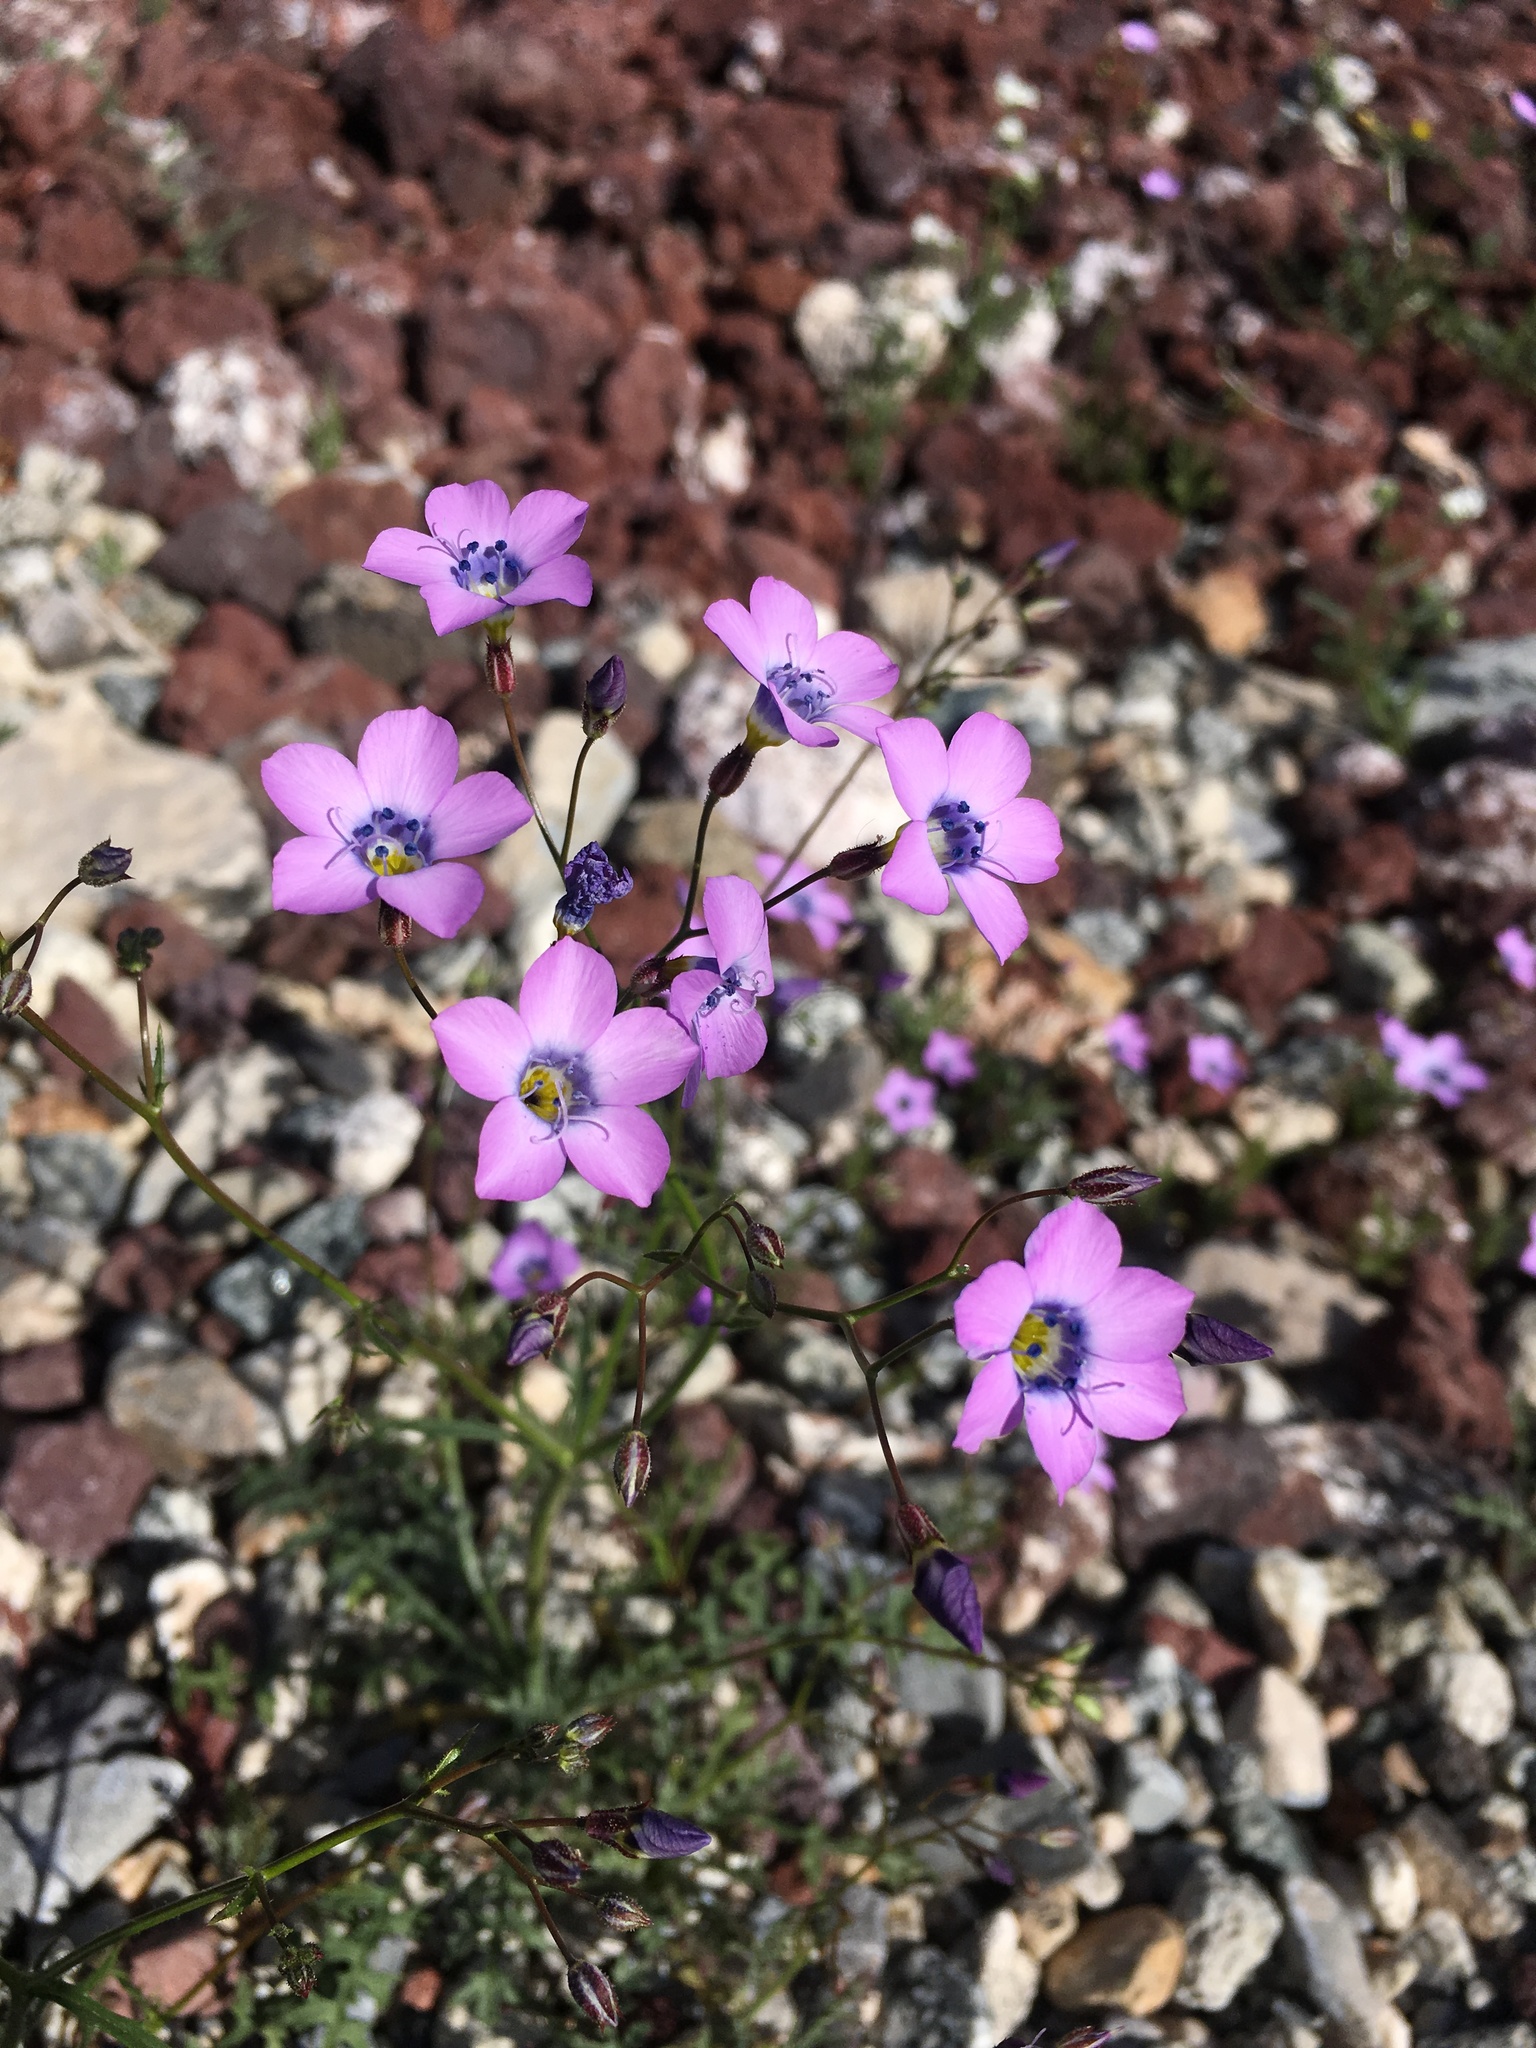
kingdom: Plantae
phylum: Tracheophyta
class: Magnoliopsida
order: Ericales
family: Polemoniaceae
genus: Gilia
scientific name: Gilia cana
